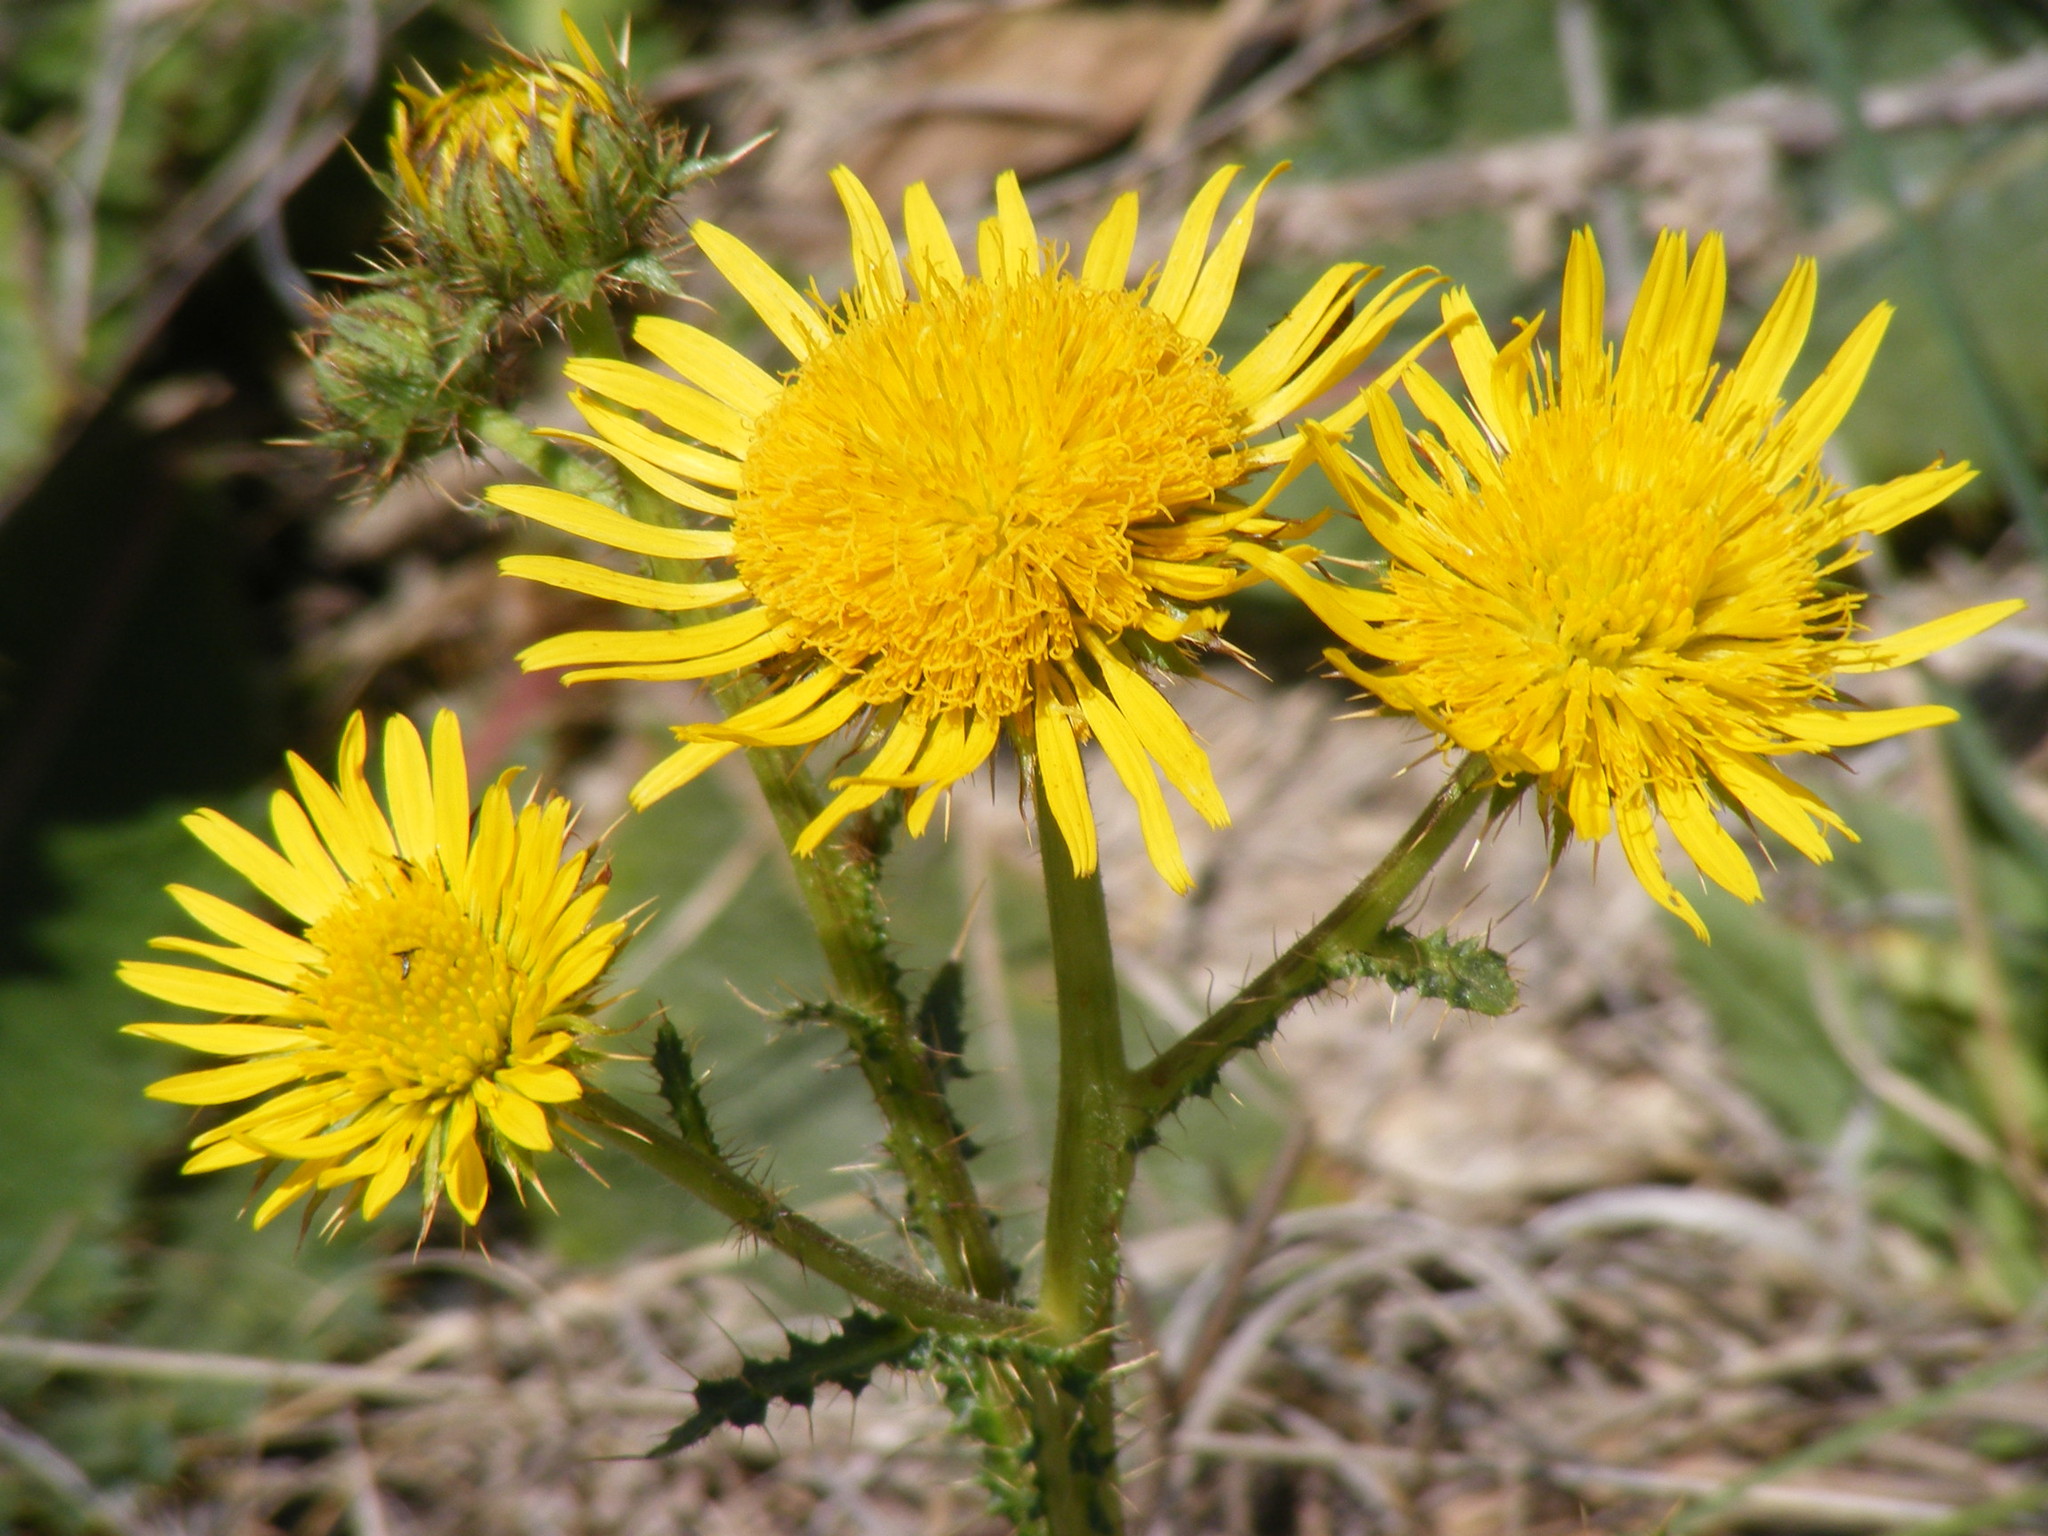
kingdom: Plantae
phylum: Tracheophyta
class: Magnoliopsida
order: Asterales
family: Asteraceae
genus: Berkheya
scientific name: Berkheya radula
